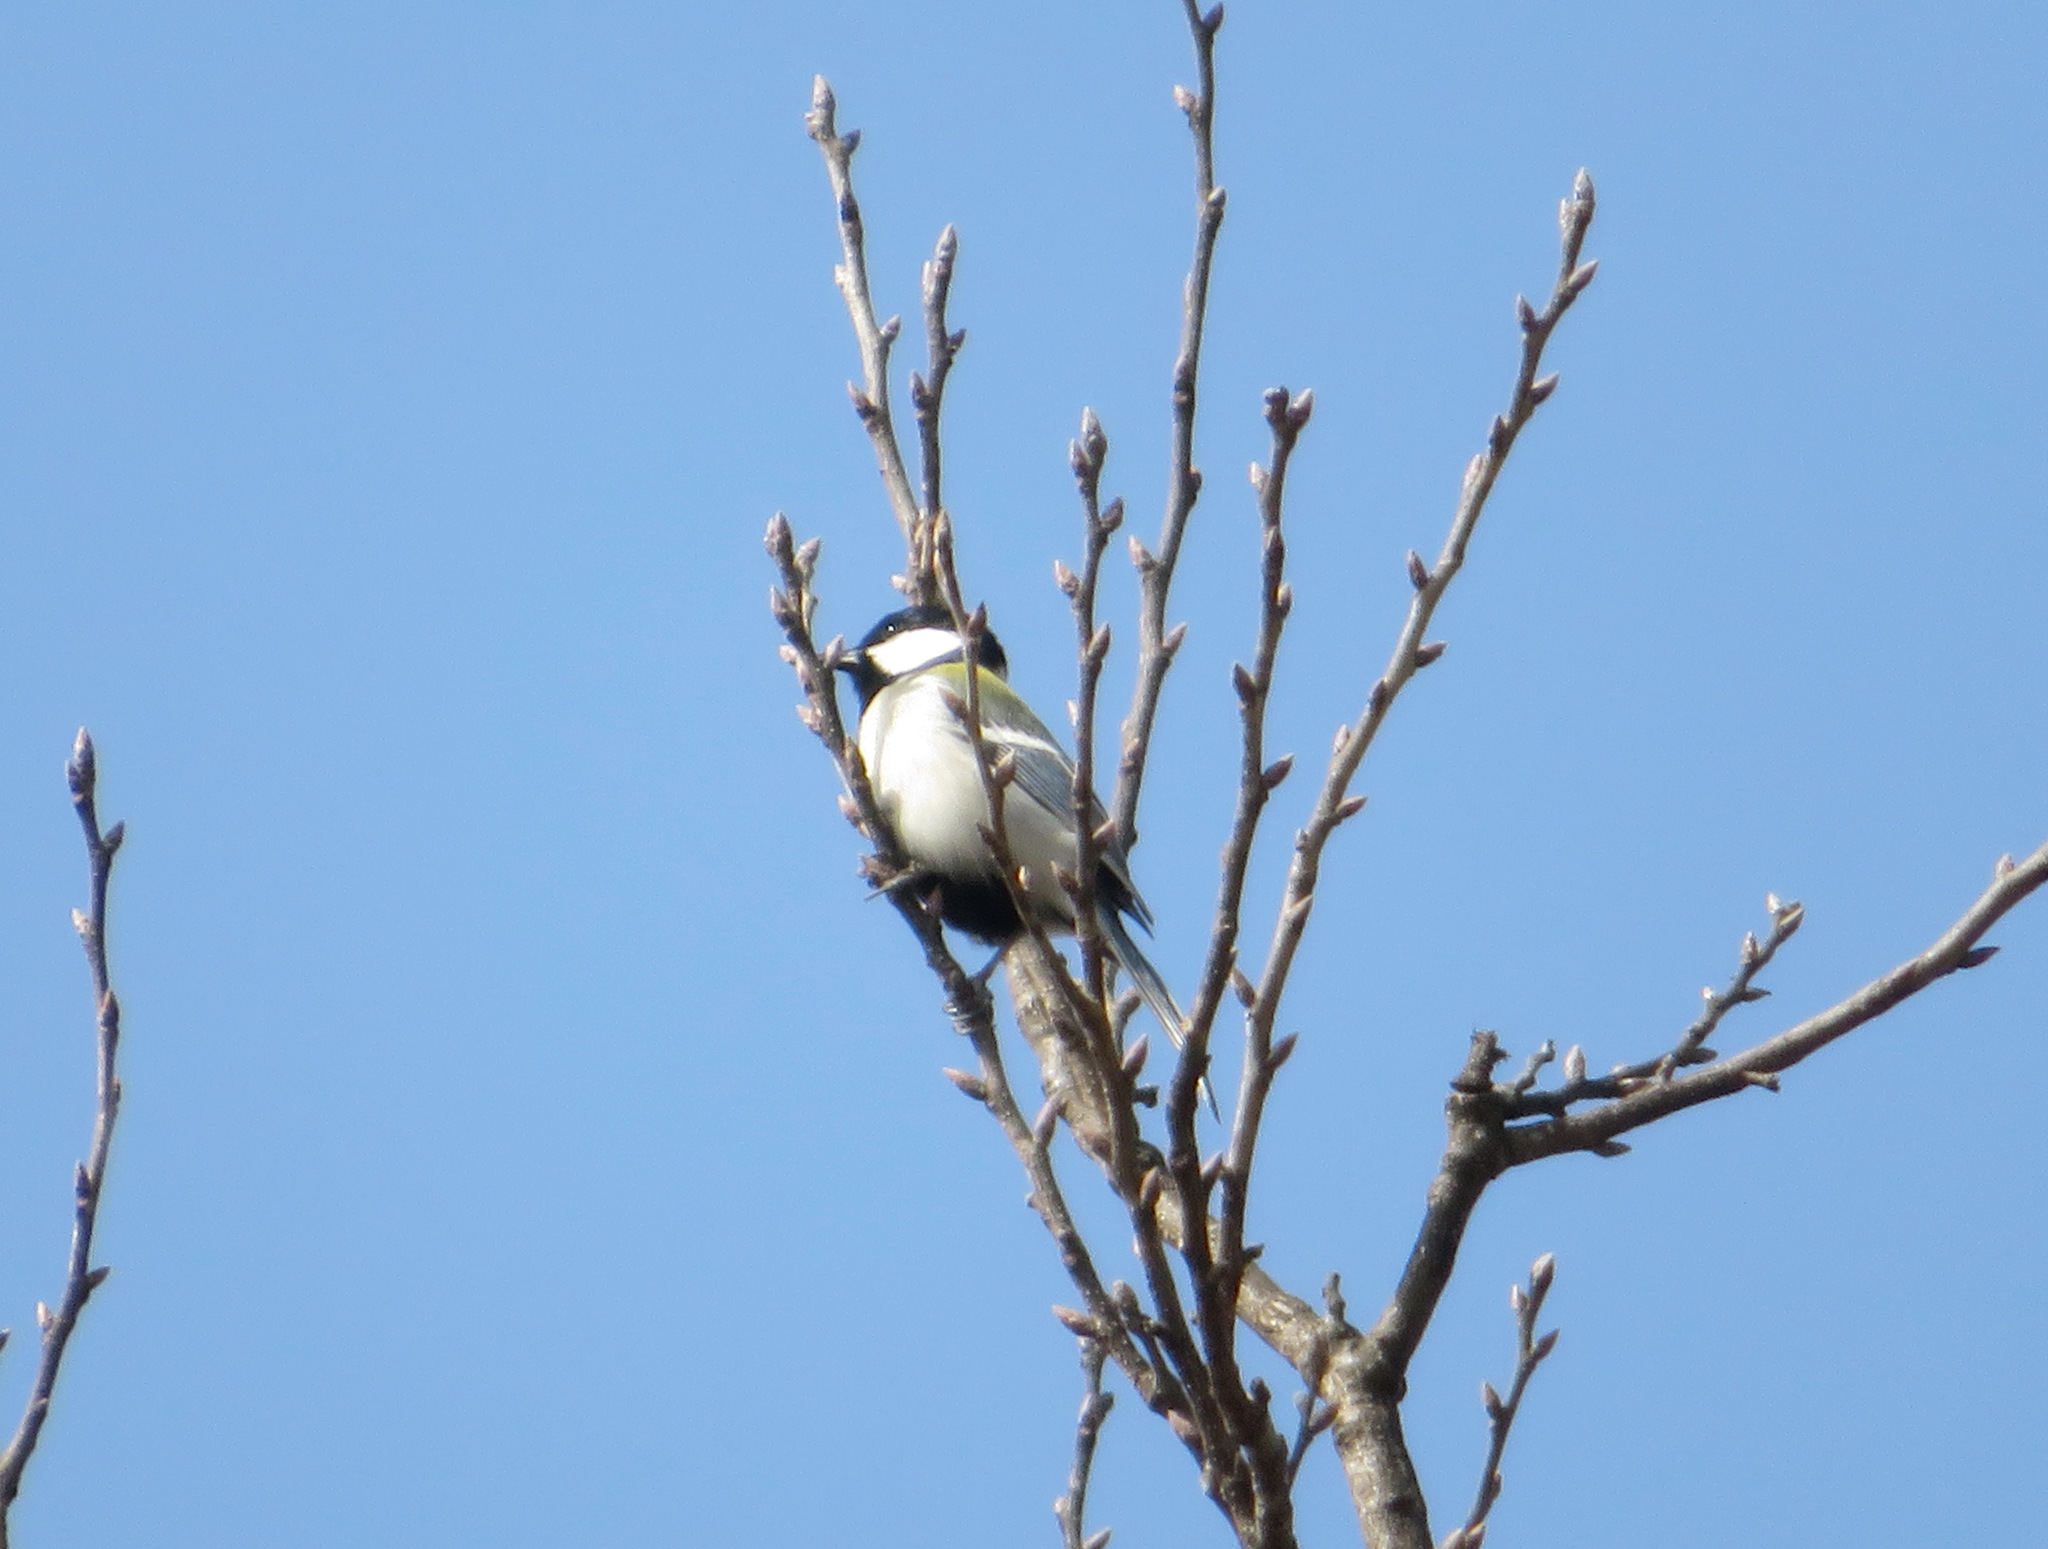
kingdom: Animalia
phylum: Chordata
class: Aves
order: Passeriformes
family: Paridae
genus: Parus
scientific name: Parus minor
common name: Japanese tit
